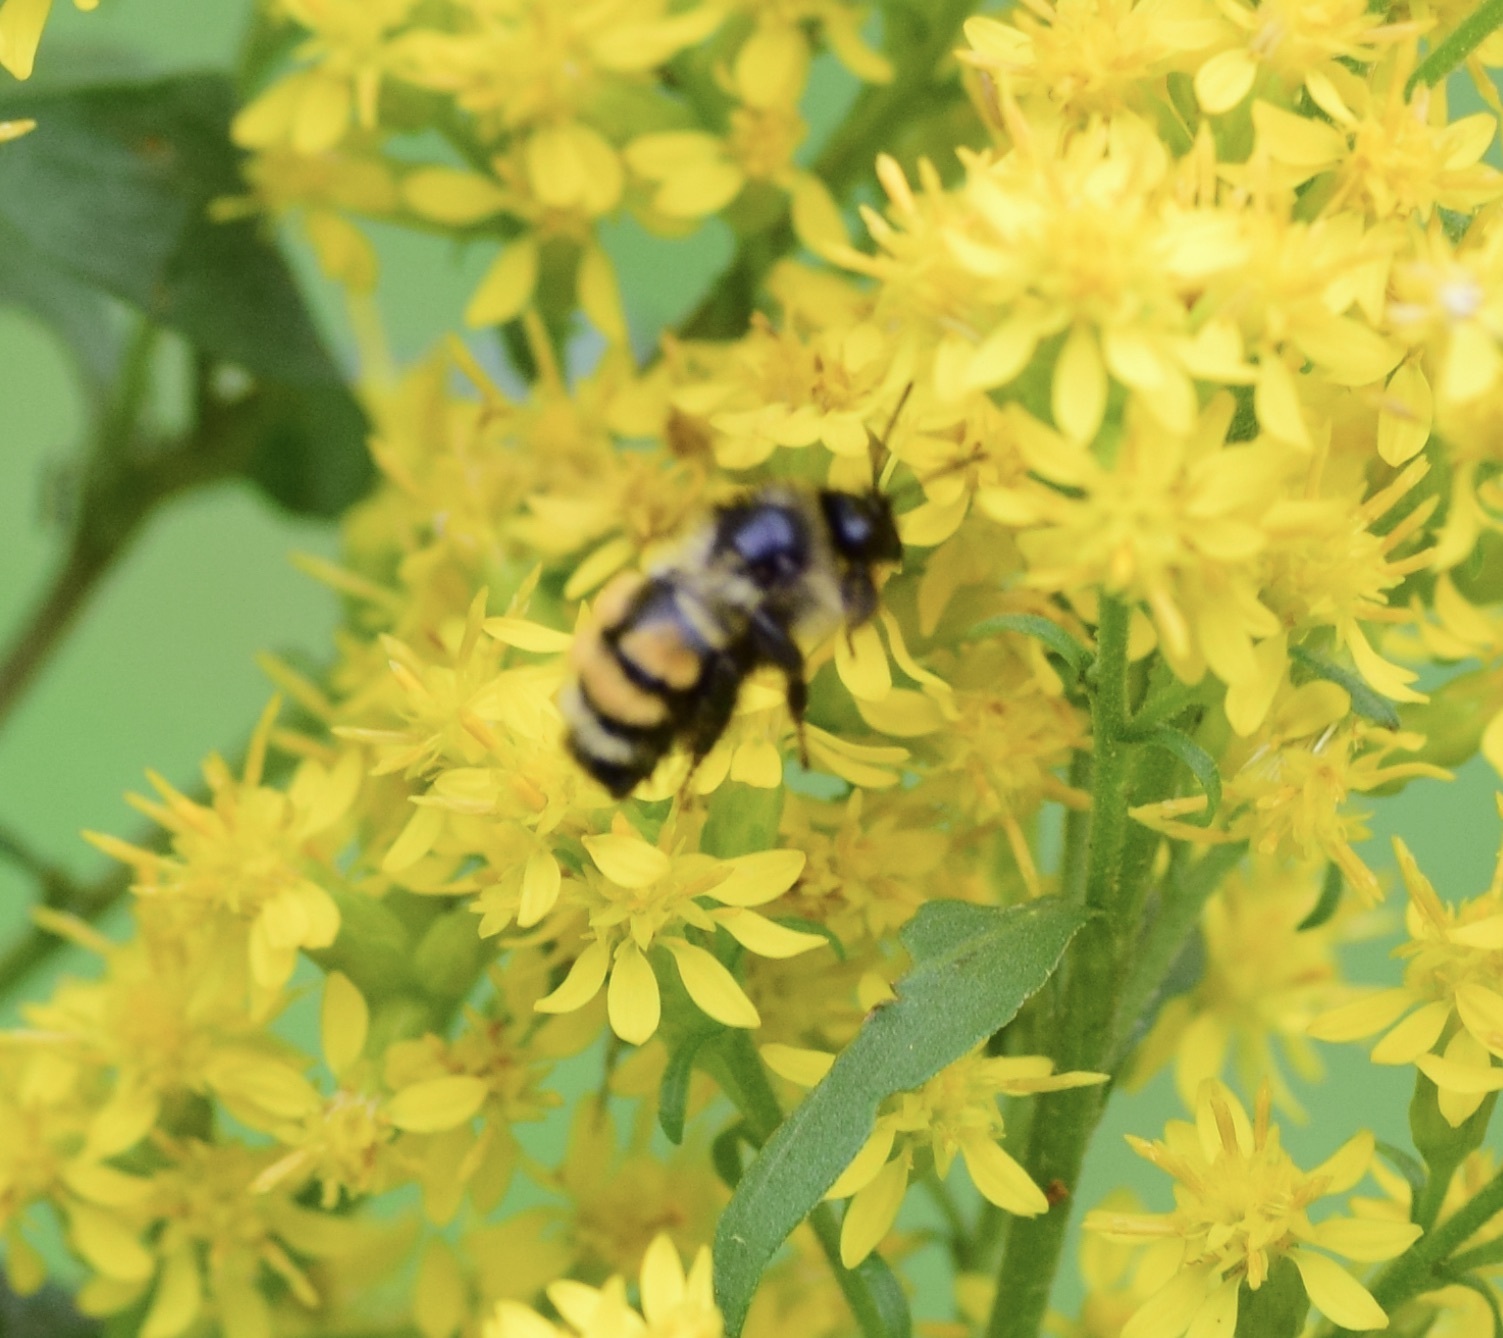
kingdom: Animalia
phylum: Arthropoda
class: Insecta
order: Hymenoptera
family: Apidae
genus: Bombus
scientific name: Bombus ternarius
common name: Tri-colored bumble bee
